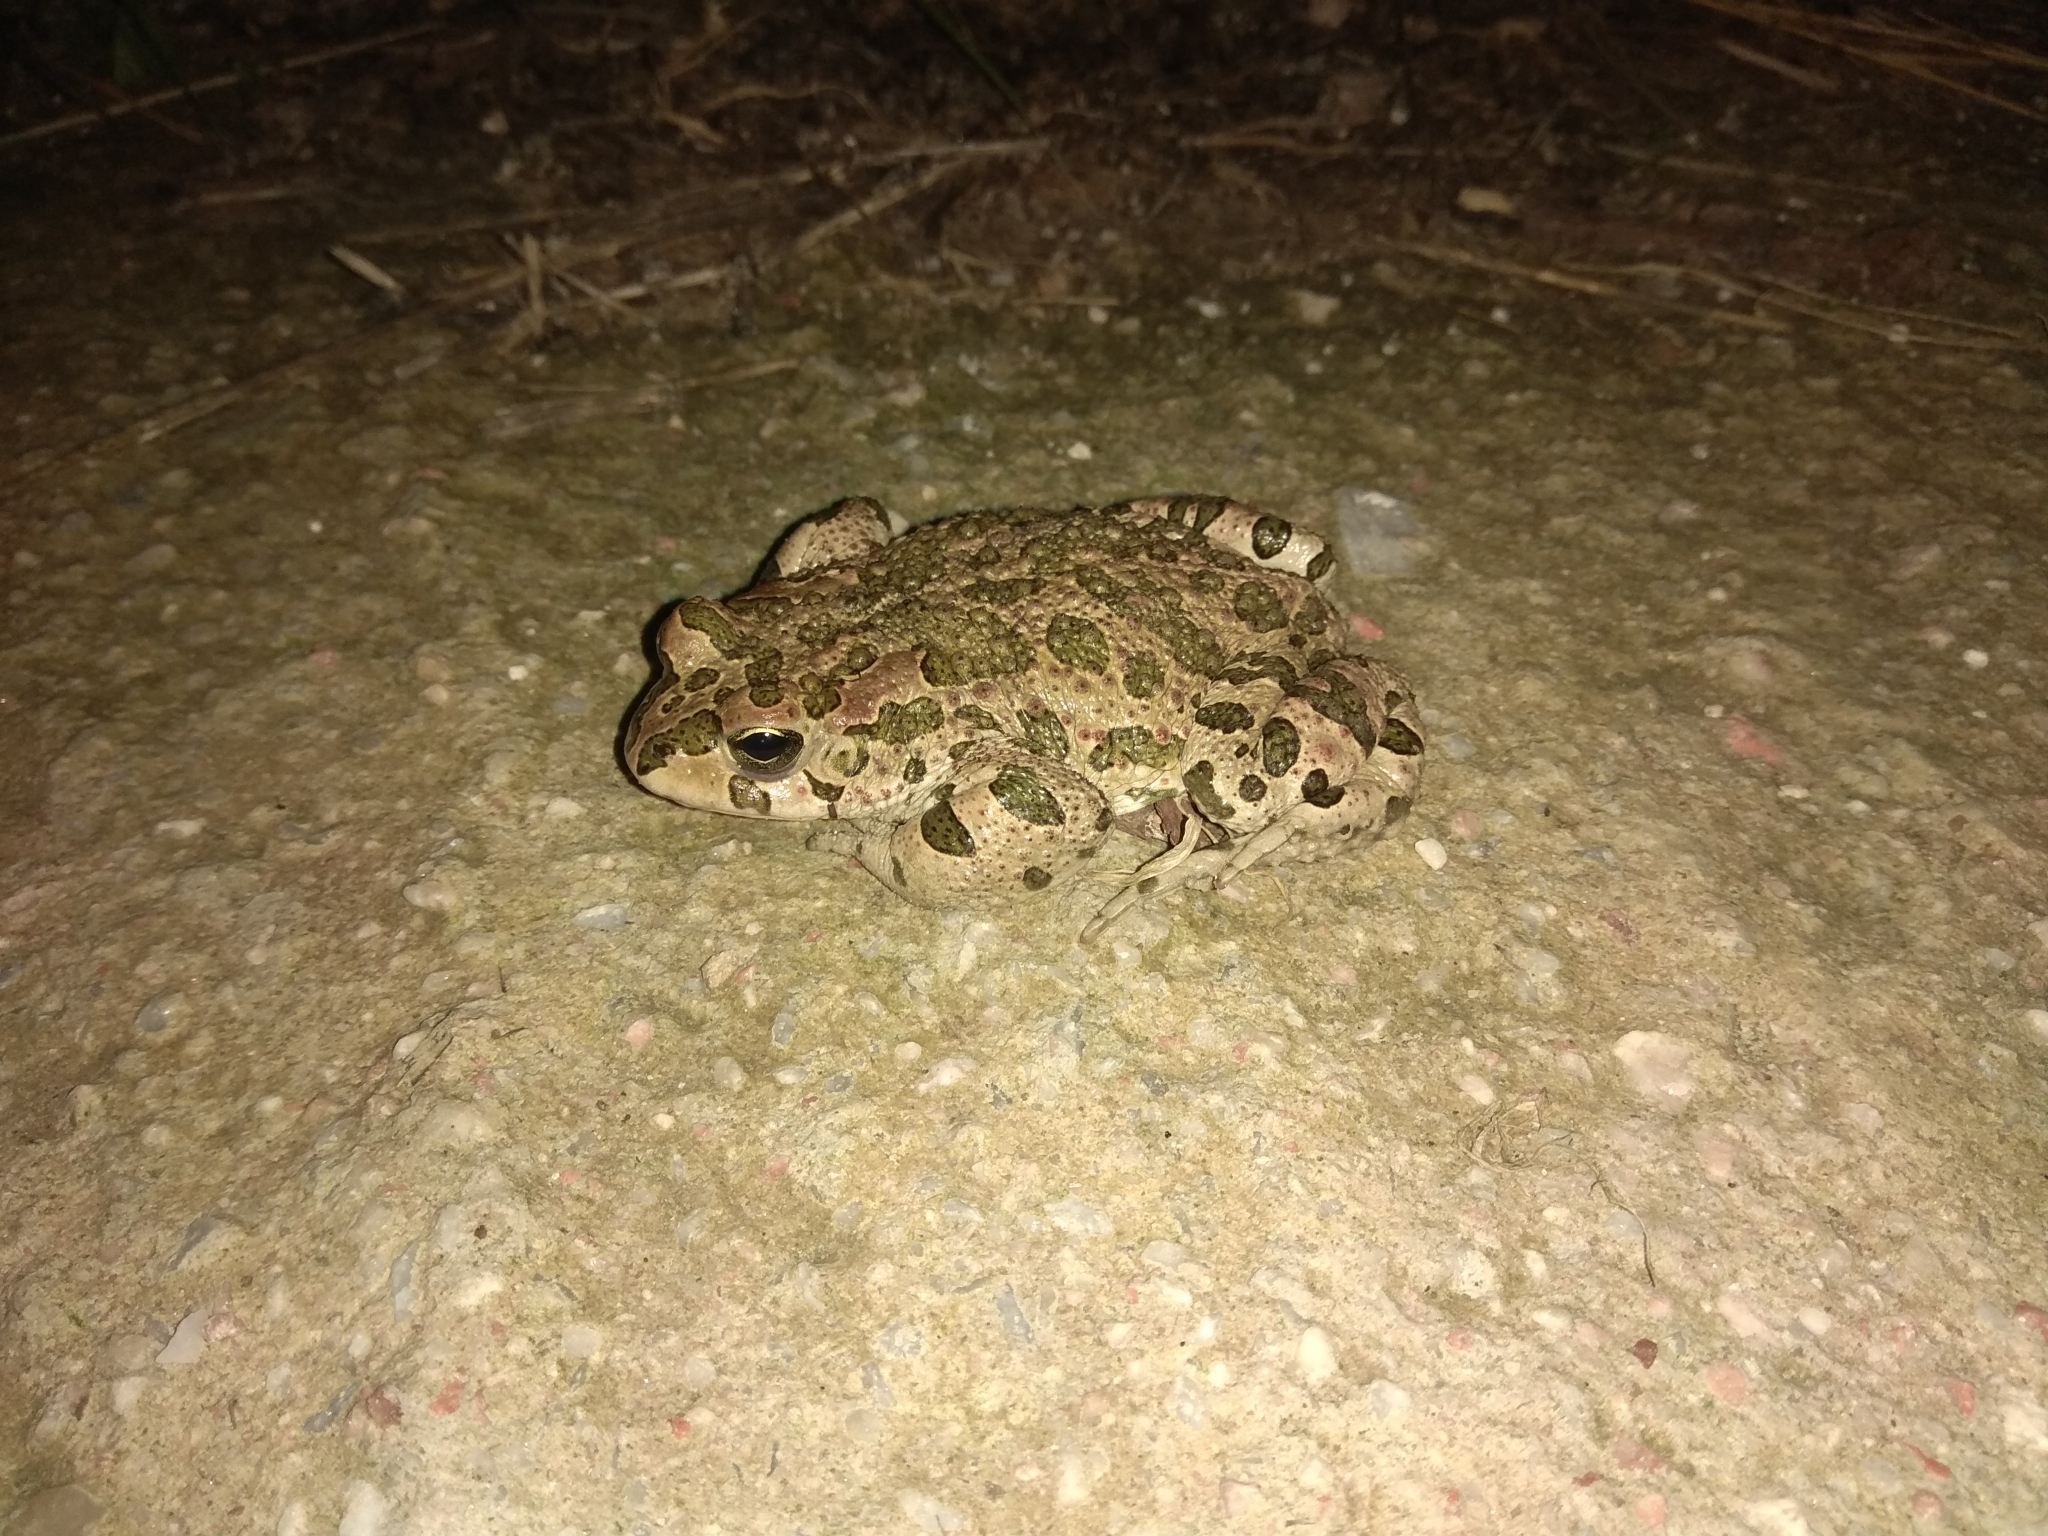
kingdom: Animalia
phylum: Chordata
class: Amphibia
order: Anura
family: Bufonidae
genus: Bufotes
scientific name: Bufotes viridis
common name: European green toad
